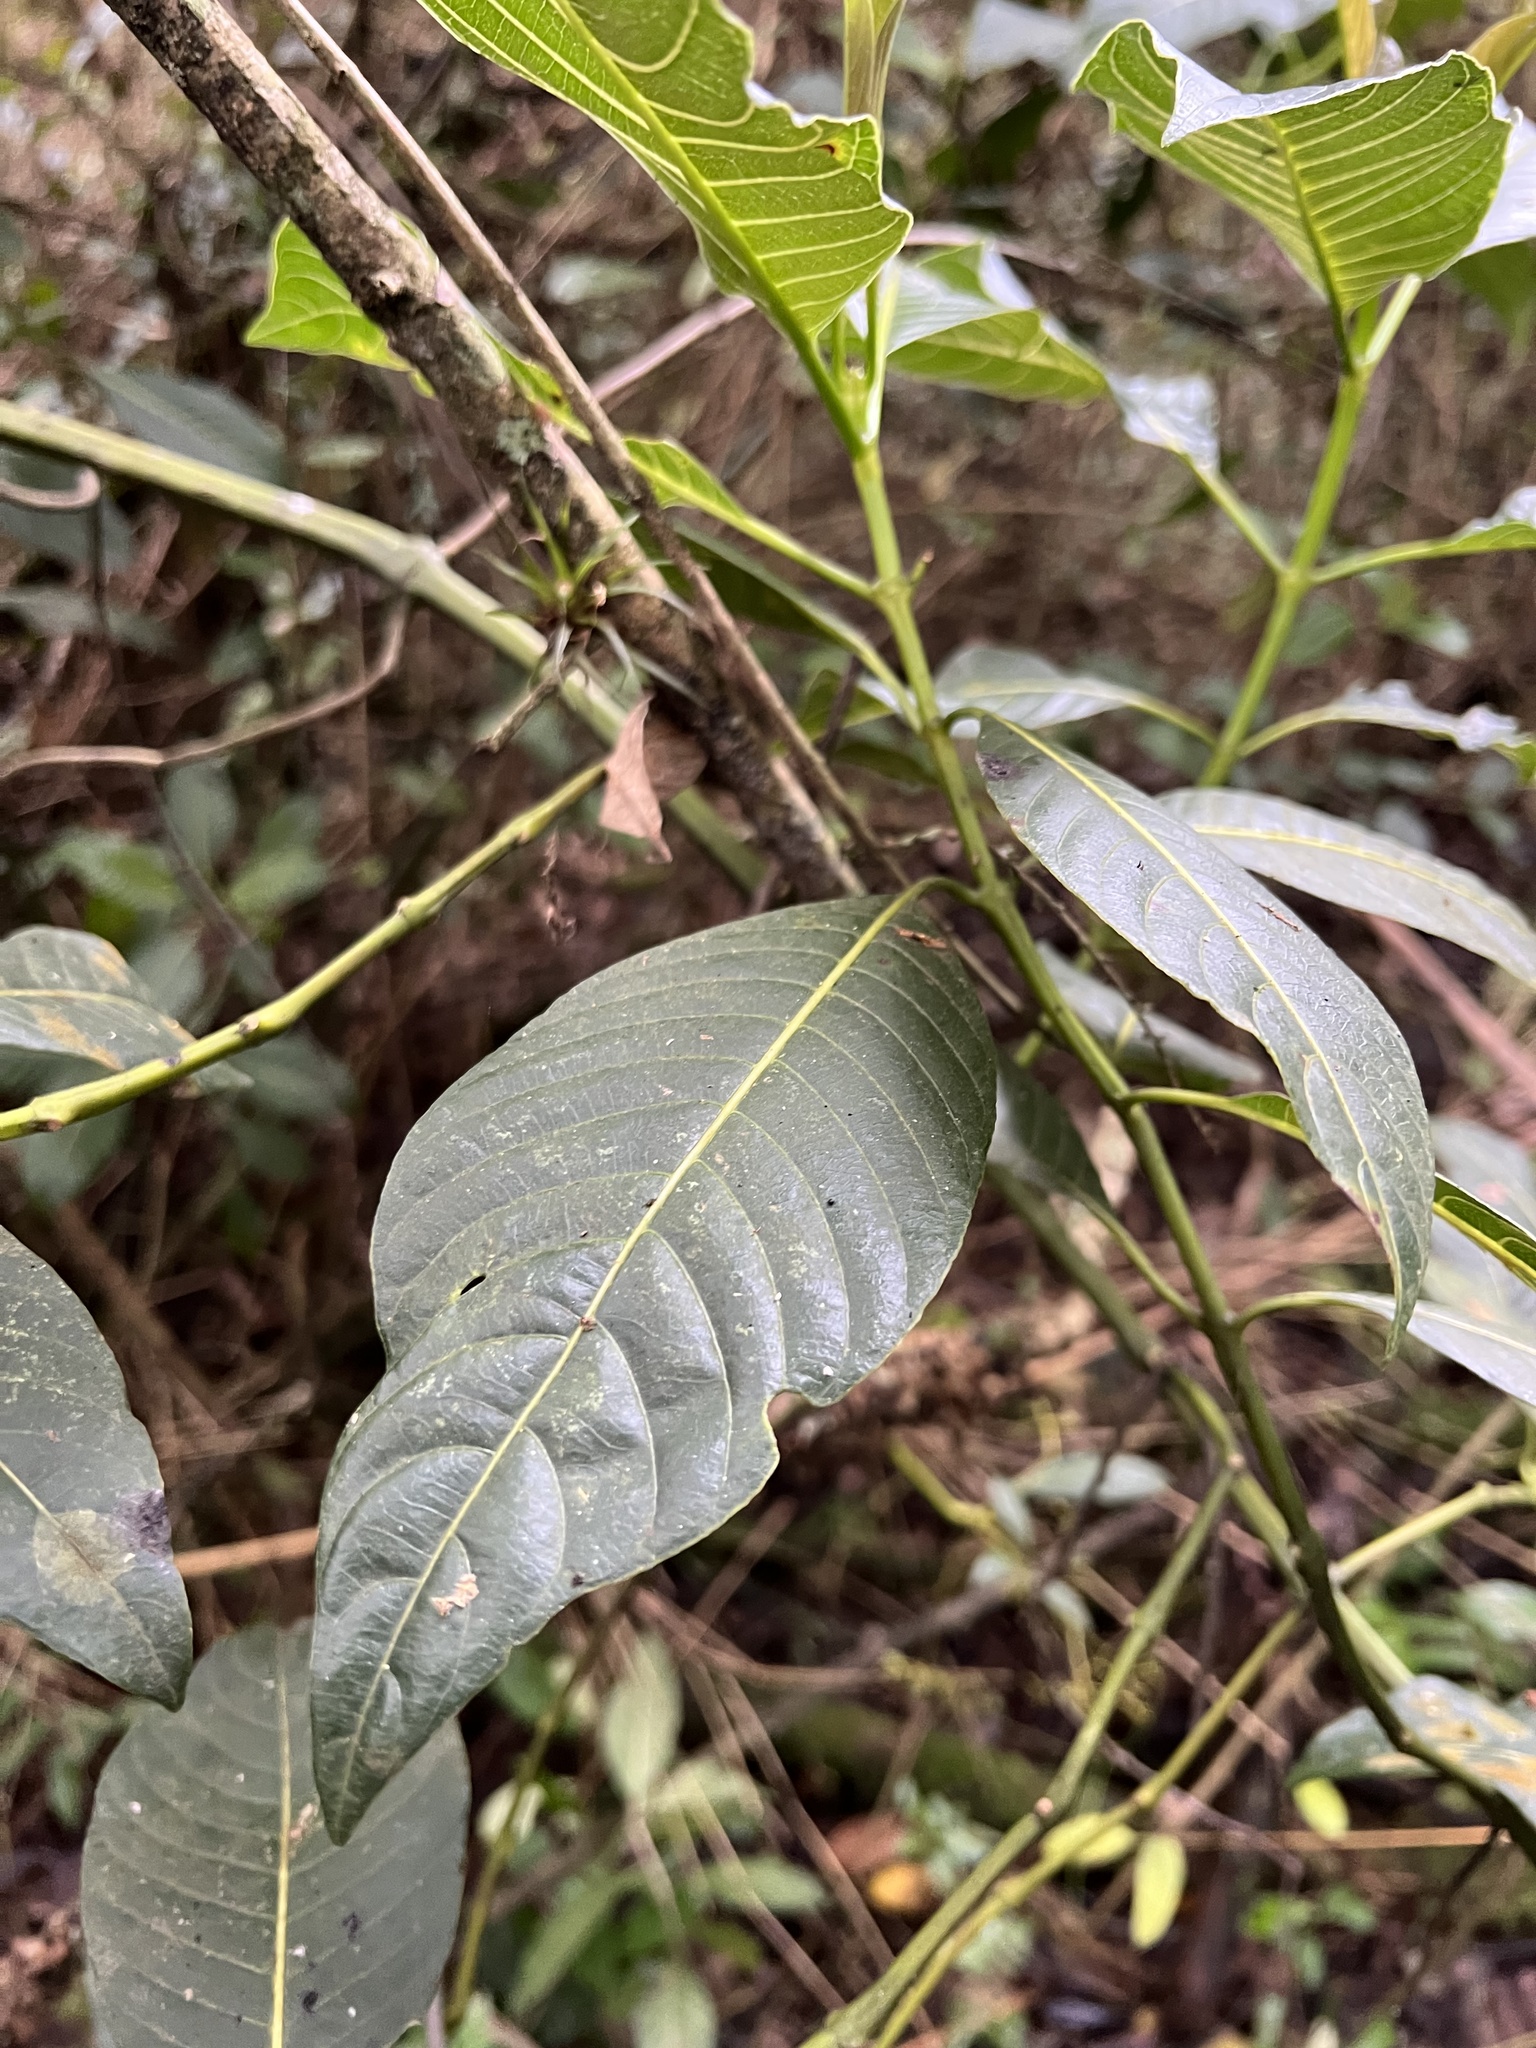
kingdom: Plantae
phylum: Tracheophyta
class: Magnoliopsida
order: Gentianales
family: Rubiaceae
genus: Palicourea
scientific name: Palicourea lineariflora
